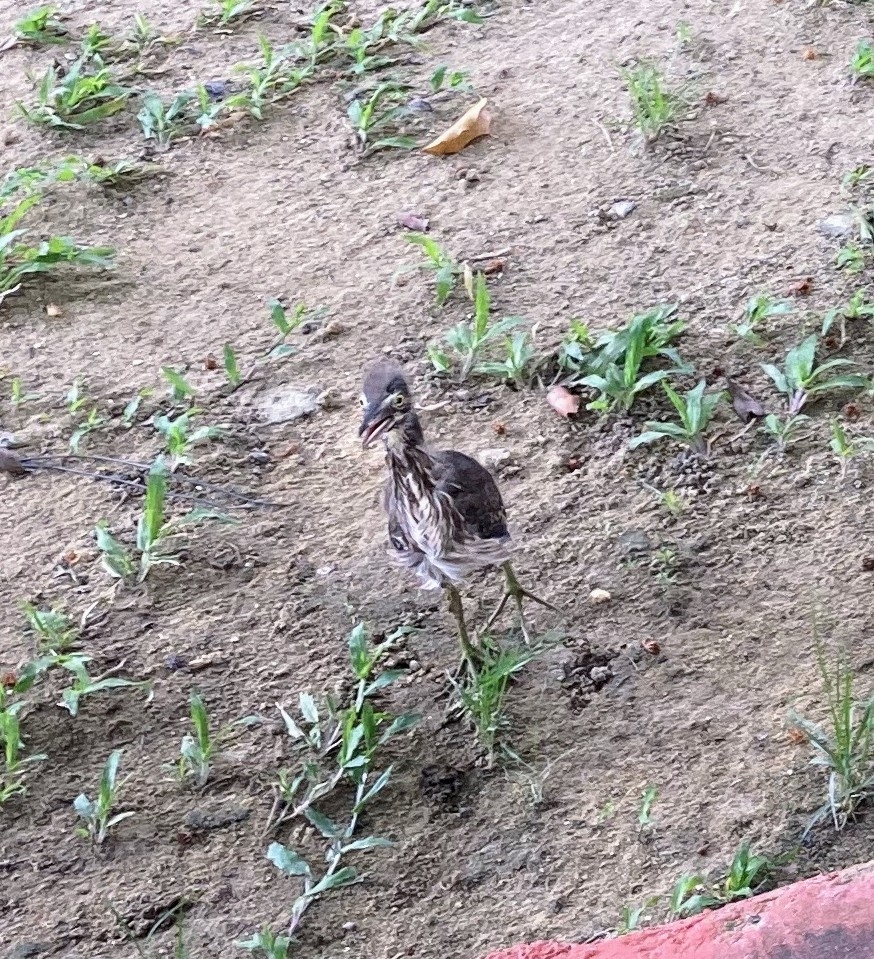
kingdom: Animalia
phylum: Chordata
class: Aves
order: Pelecaniformes
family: Ardeidae
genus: Butorides
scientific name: Butorides striata
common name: Striated heron
